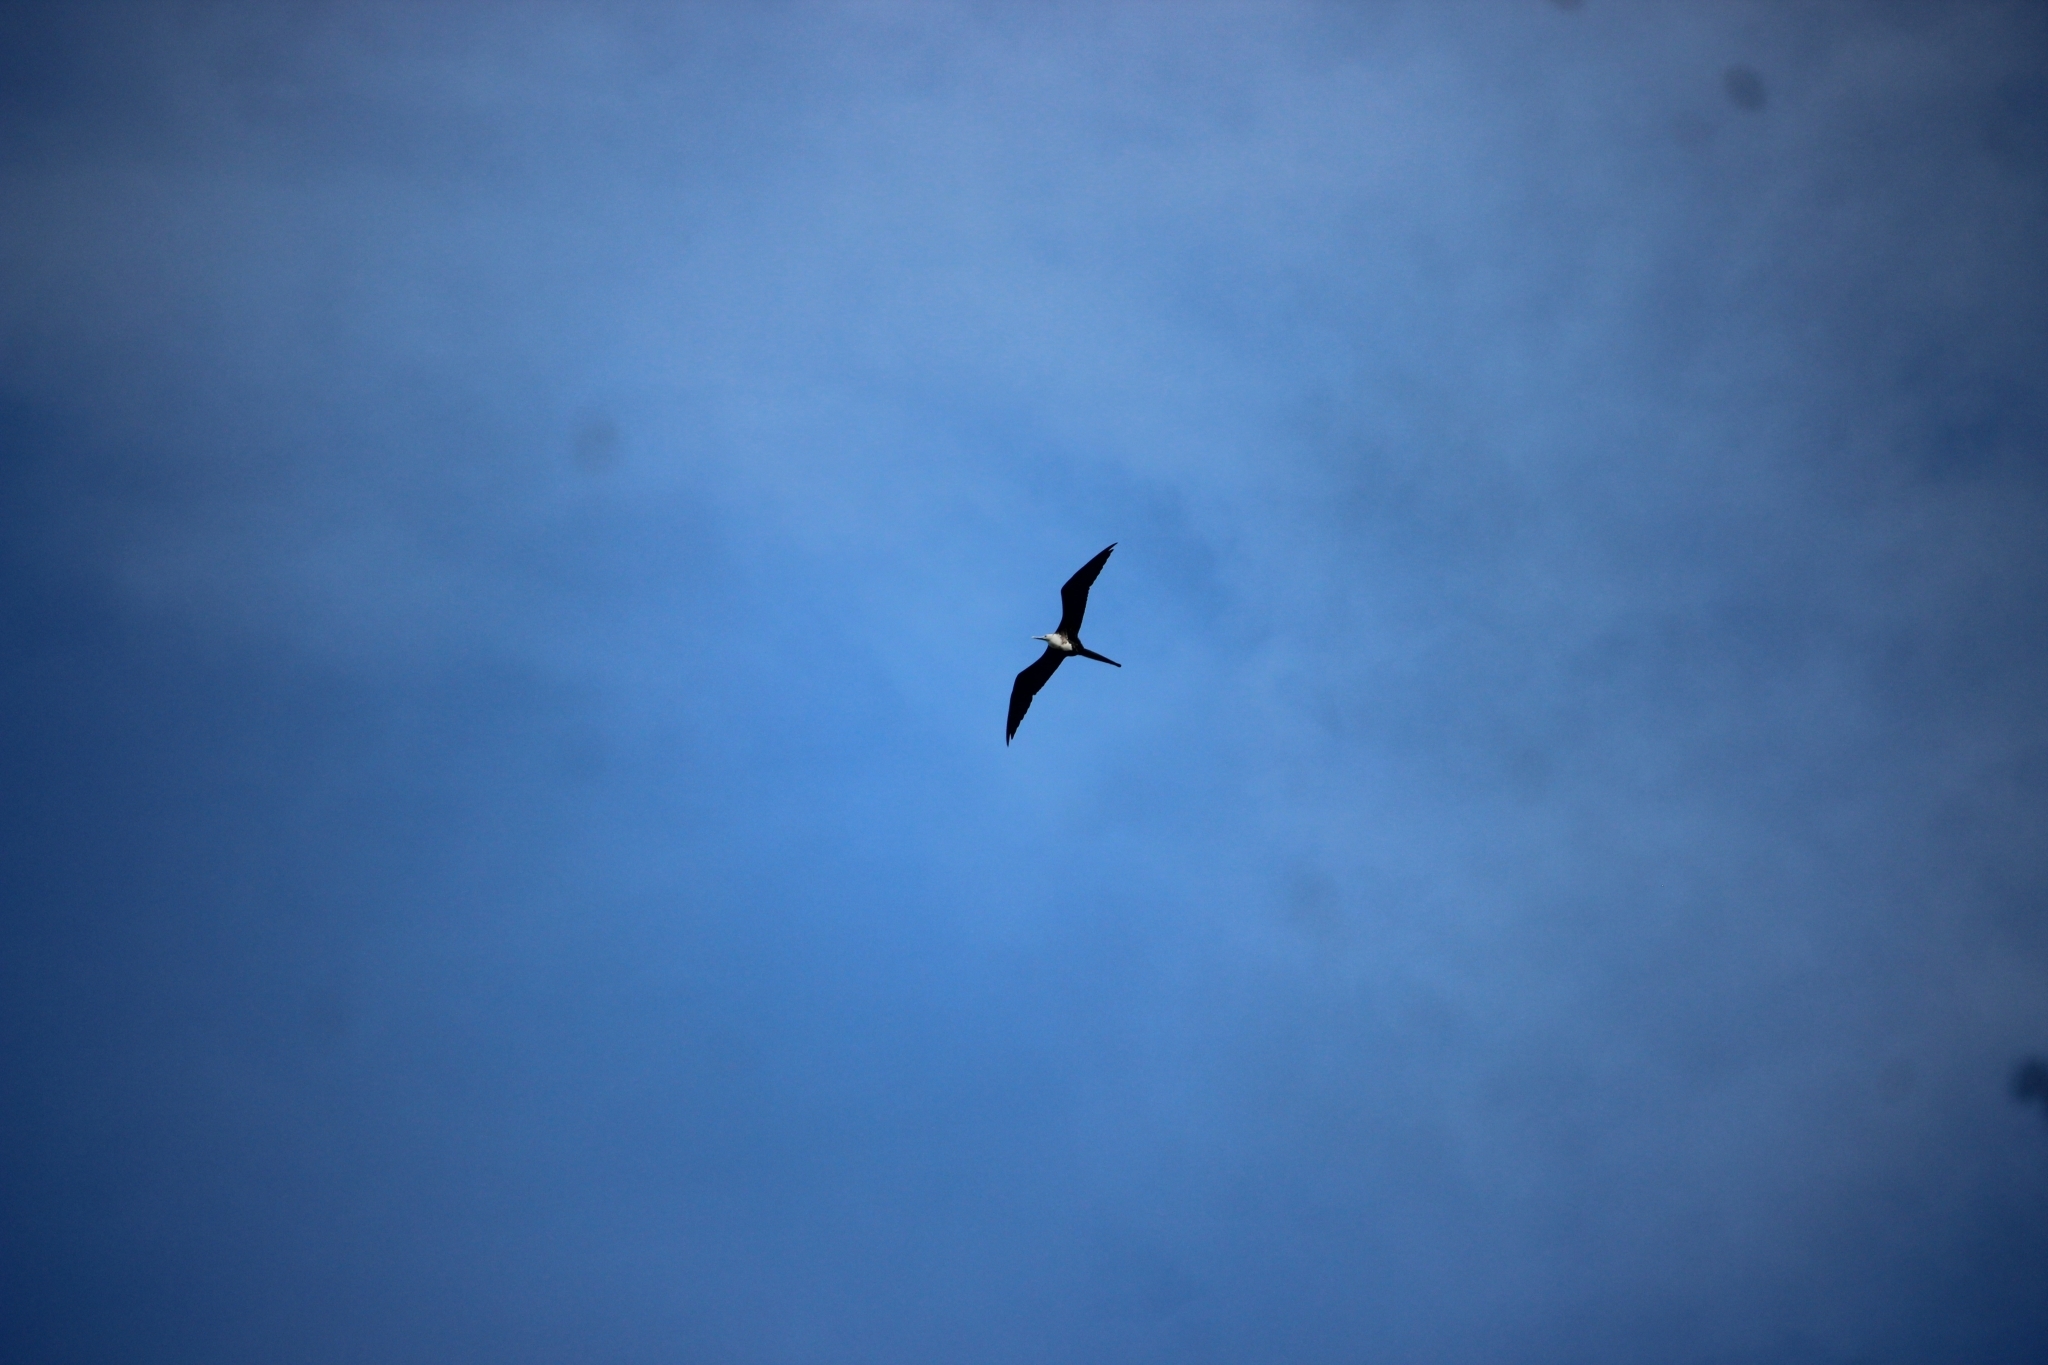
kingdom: Animalia
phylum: Chordata
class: Aves
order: Suliformes
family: Fregatidae
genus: Fregata
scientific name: Fregata magnificens
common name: Magnificent frigatebird
